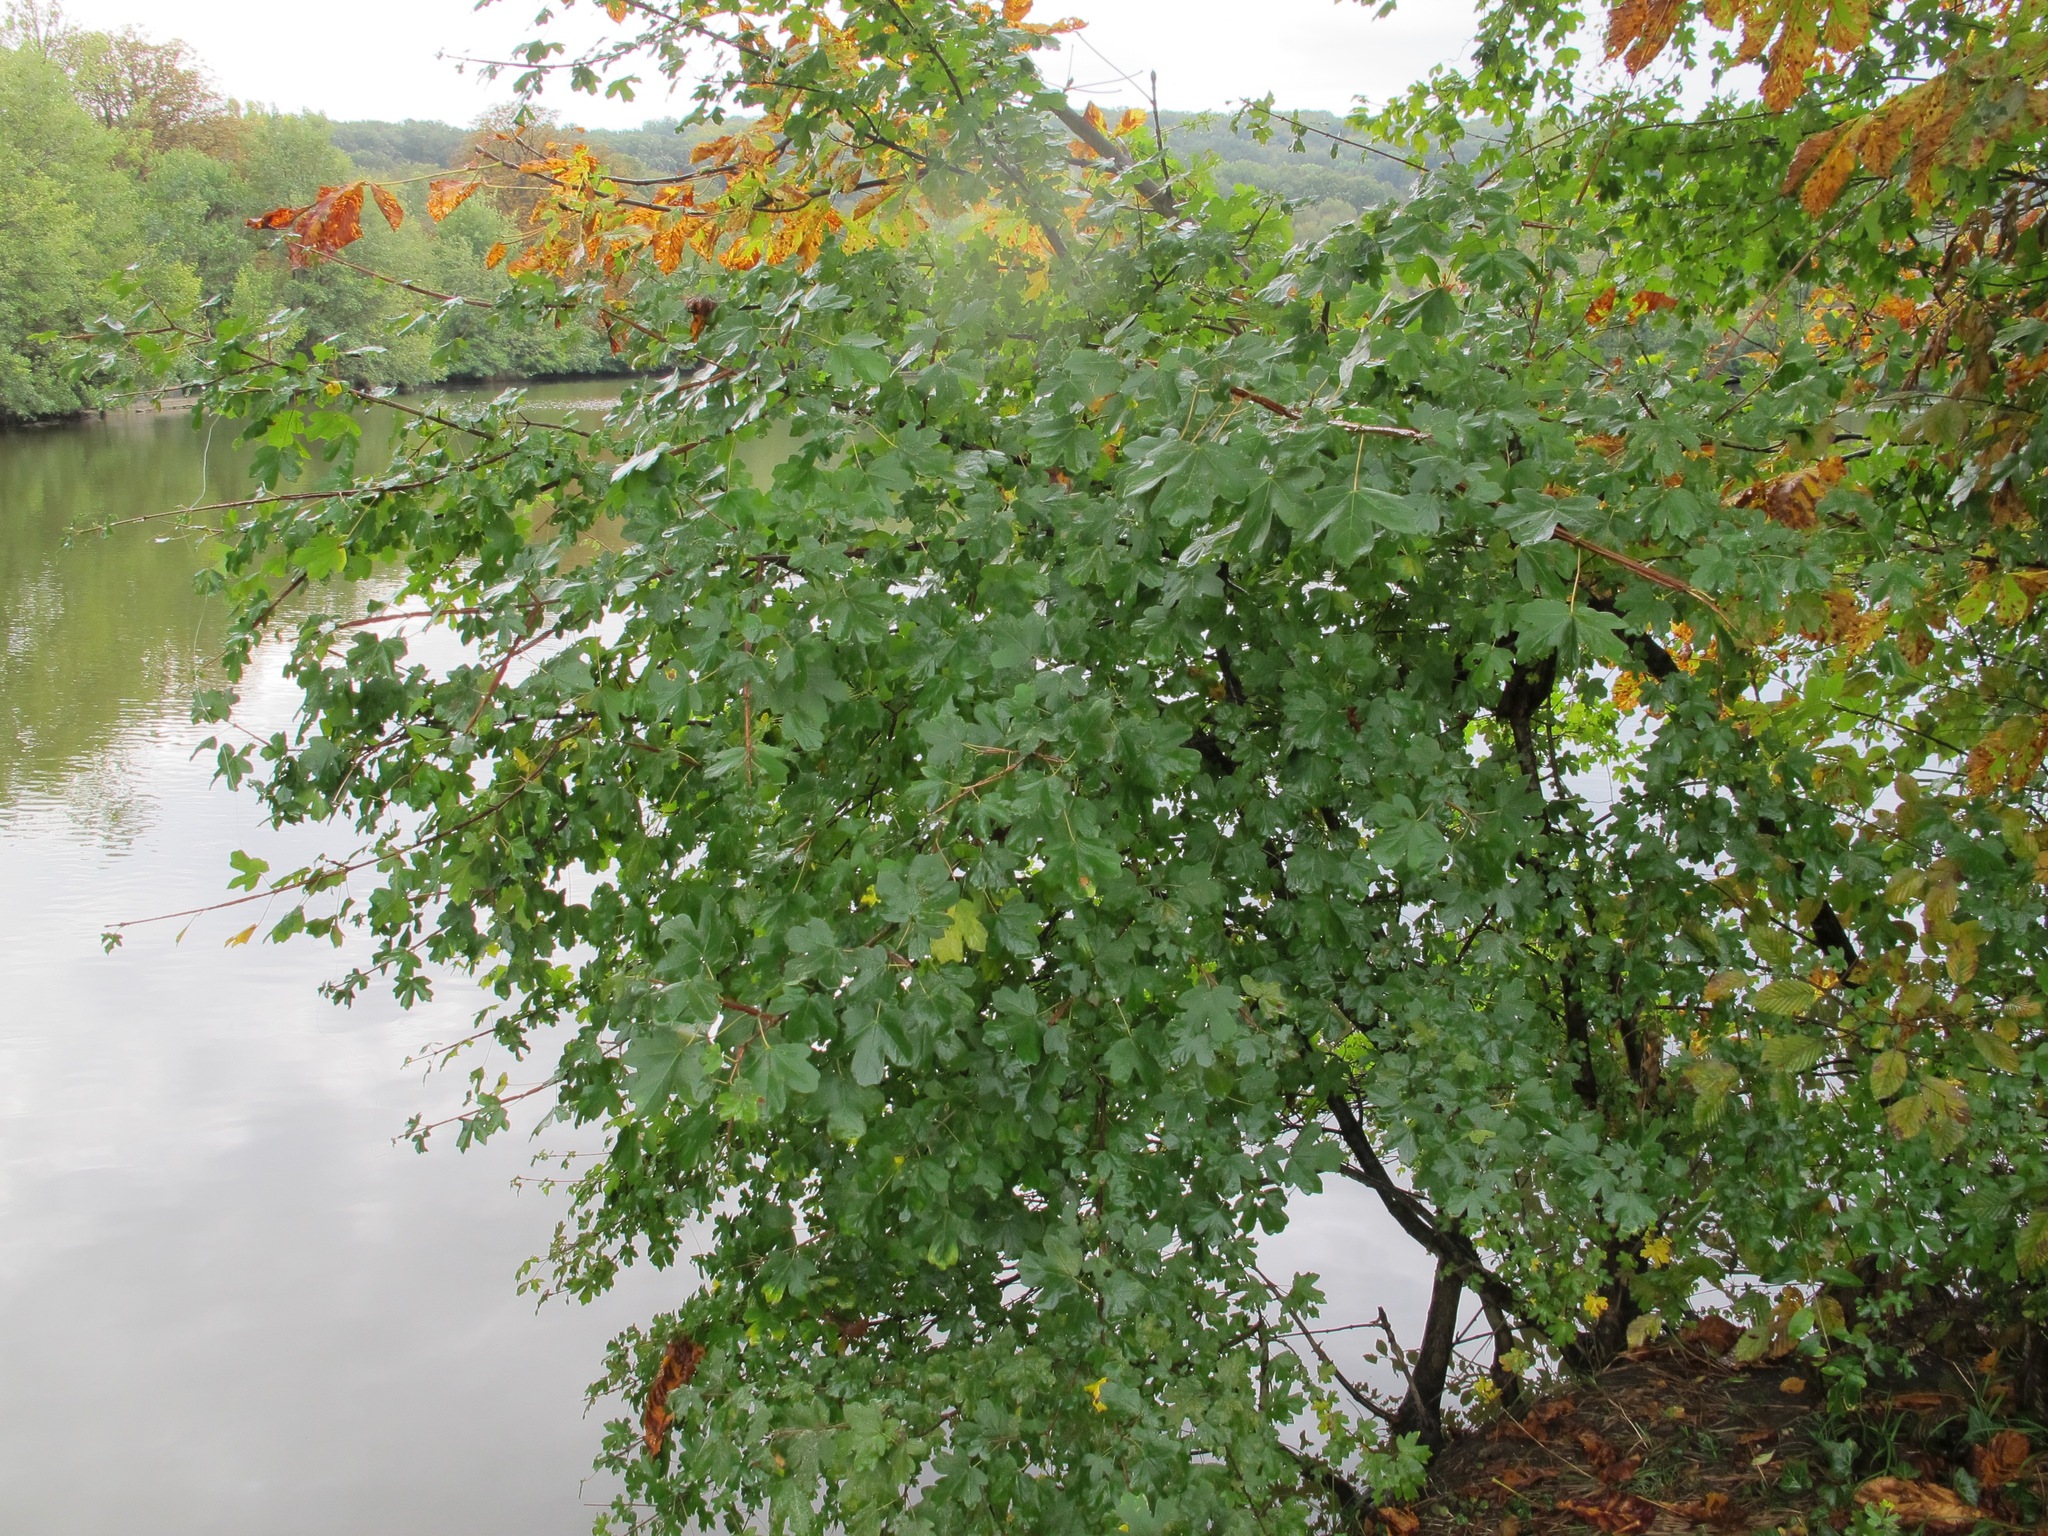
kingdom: Plantae
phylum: Tracheophyta
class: Magnoliopsida
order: Sapindales
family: Sapindaceae
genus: Acer
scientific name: Acer campestre
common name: Field maple
